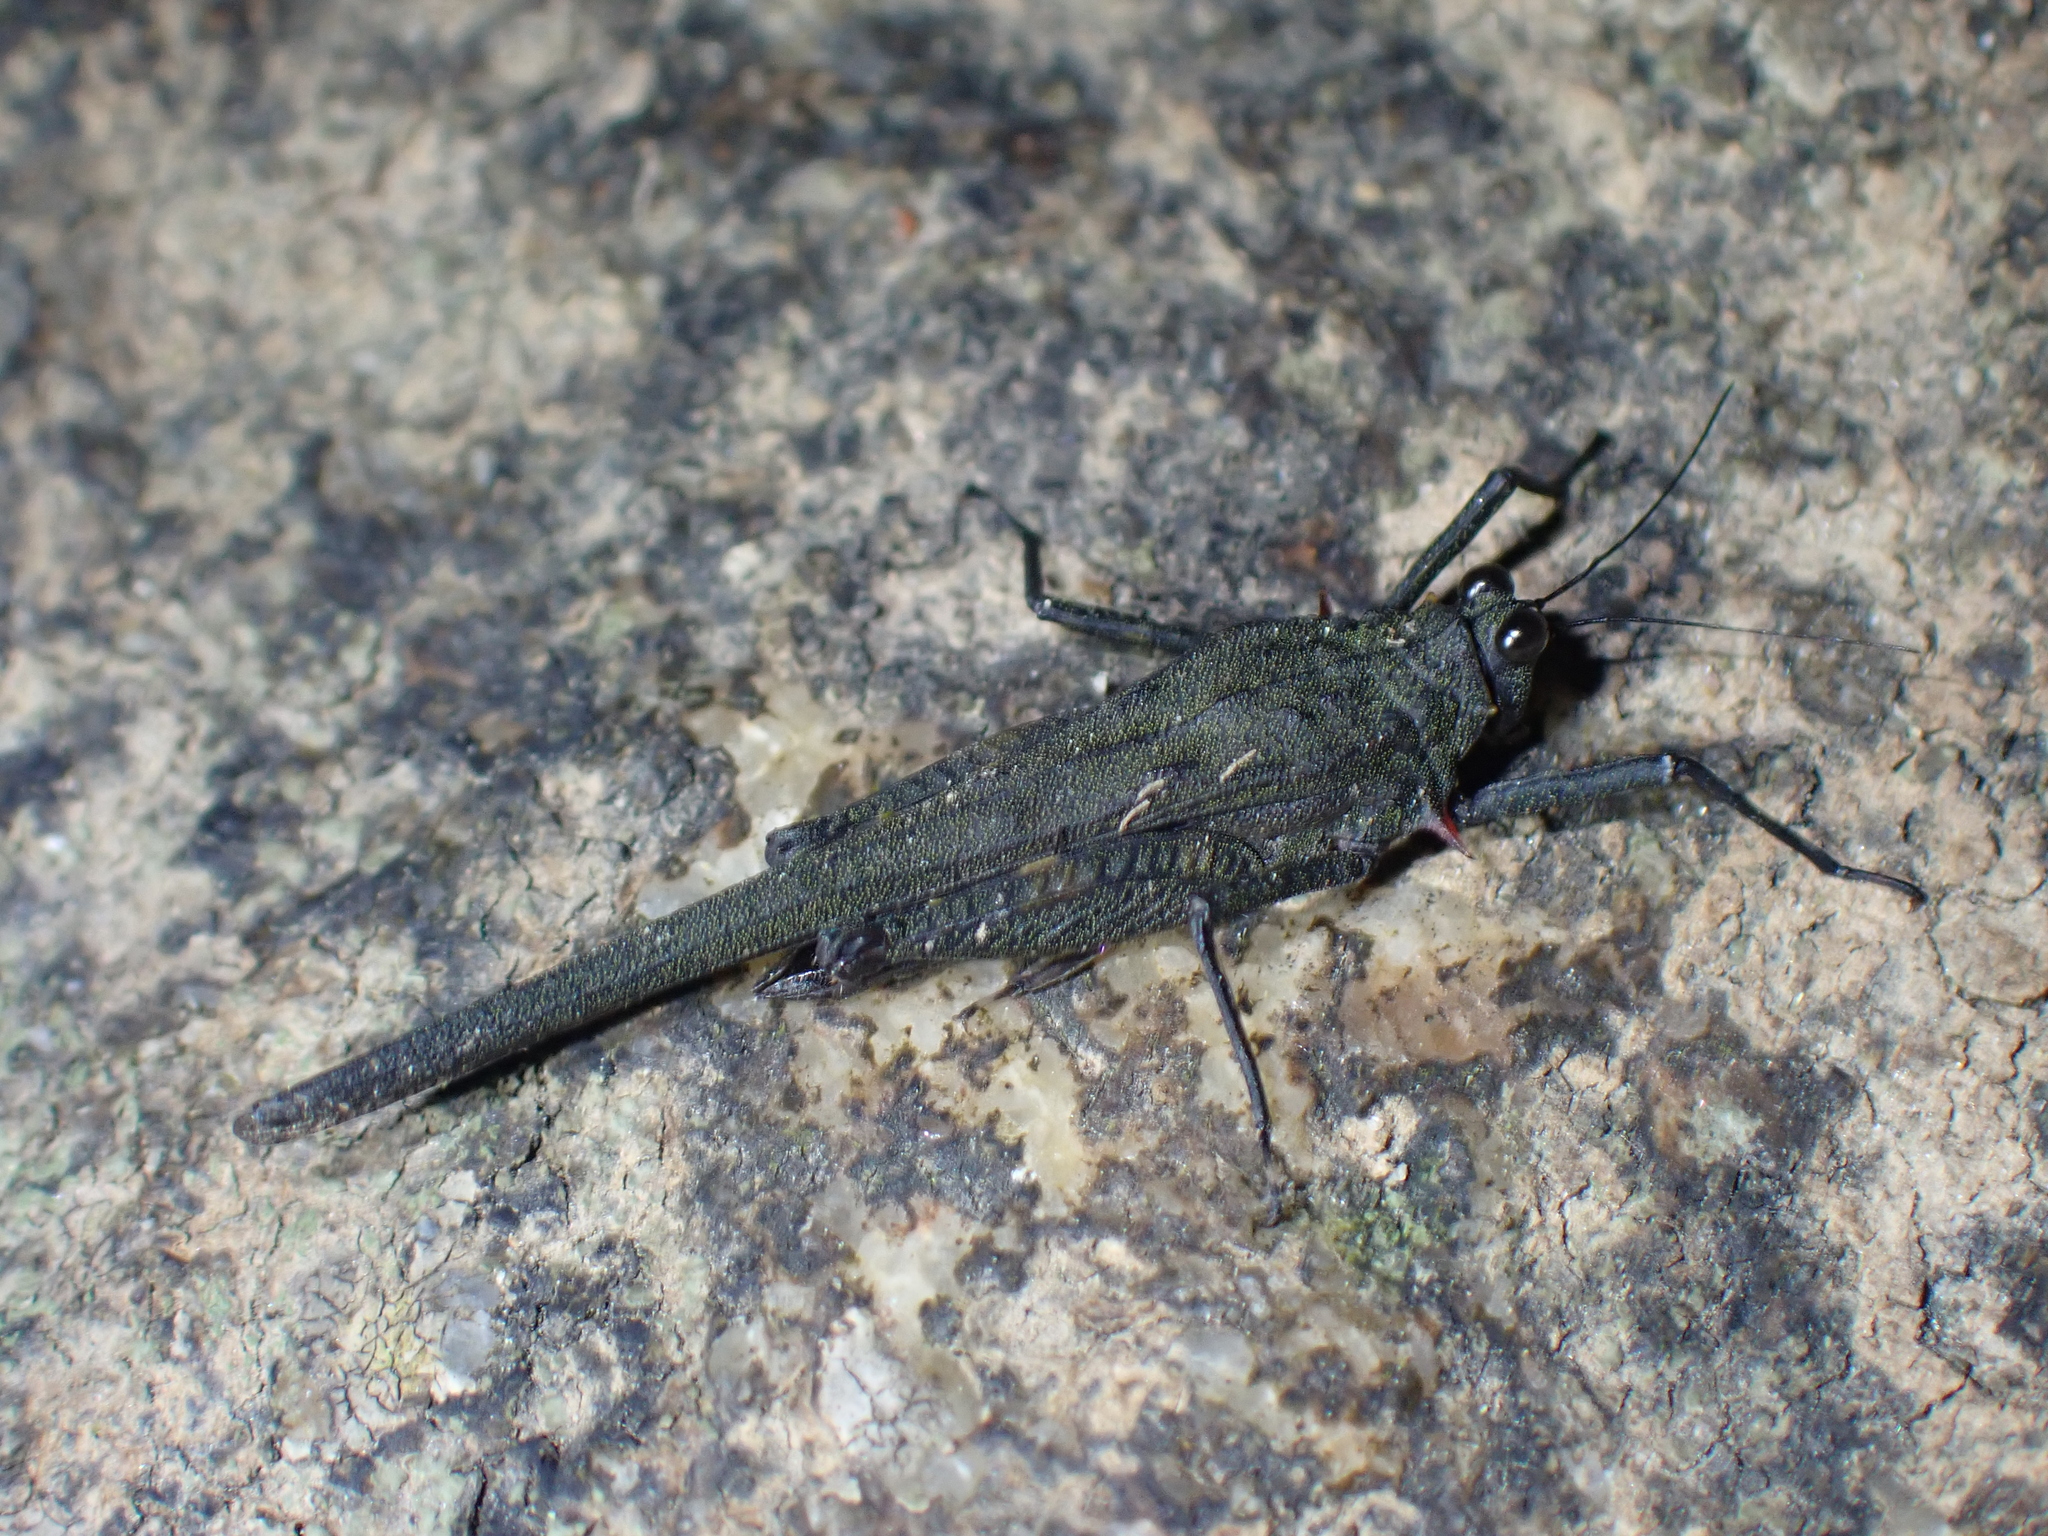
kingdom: Animalia
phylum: Arthropoda
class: Insecta
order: Orthoptera
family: Tetrigidae
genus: Scelimena
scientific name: Scelimena bellula
